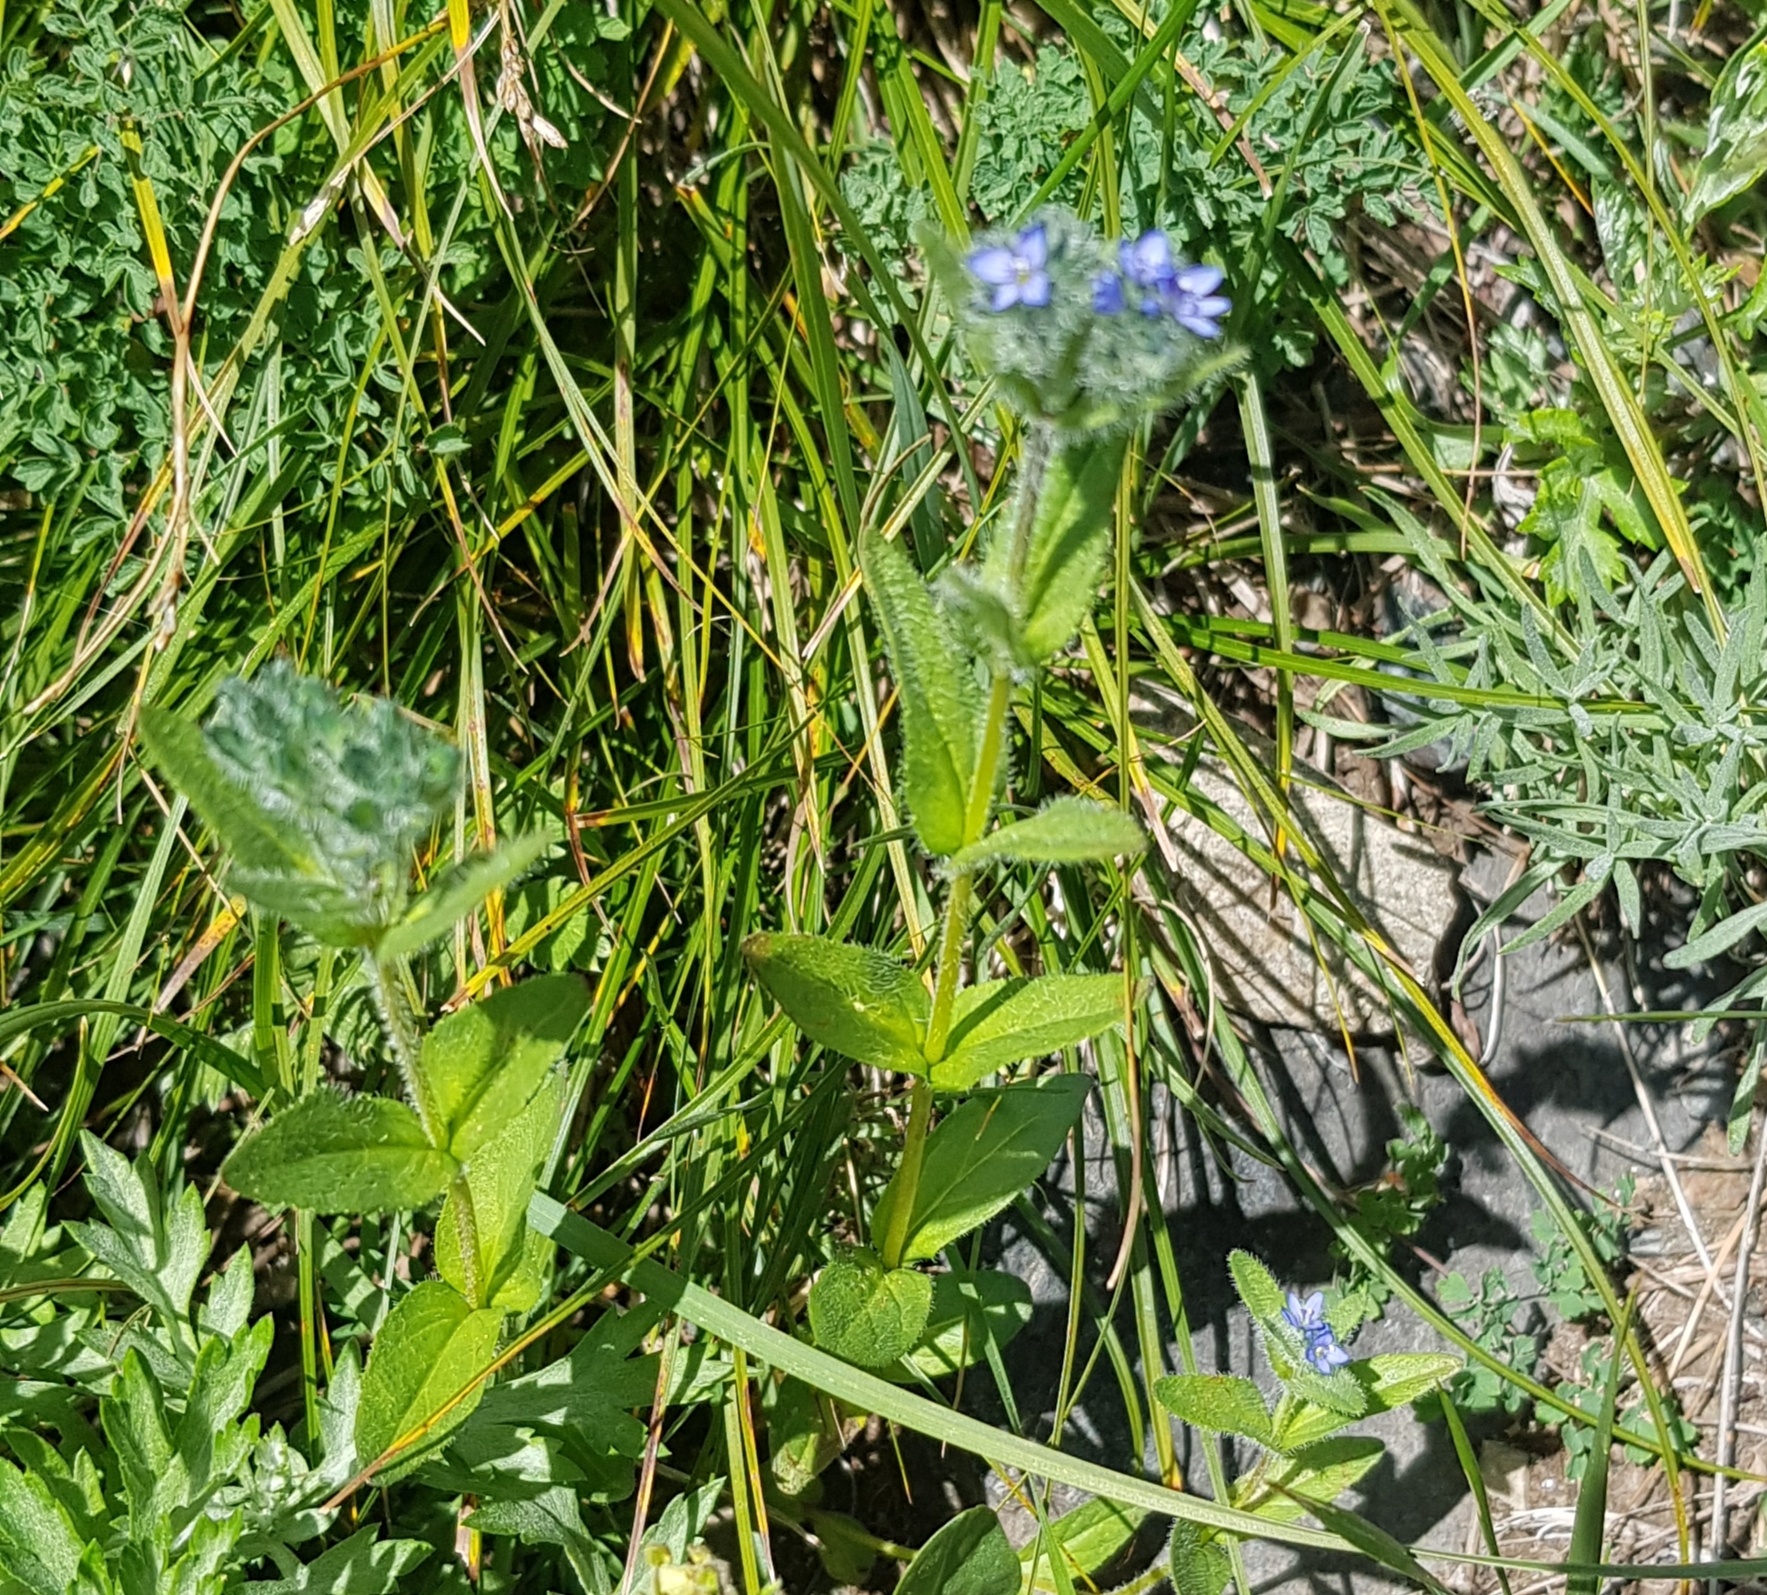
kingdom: Plantae
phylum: Tracheophyta
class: Magnoliopsida
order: Lamiales
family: Plantaginaceae
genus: Veronica
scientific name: Veronica alpina
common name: Alpine speedwell
